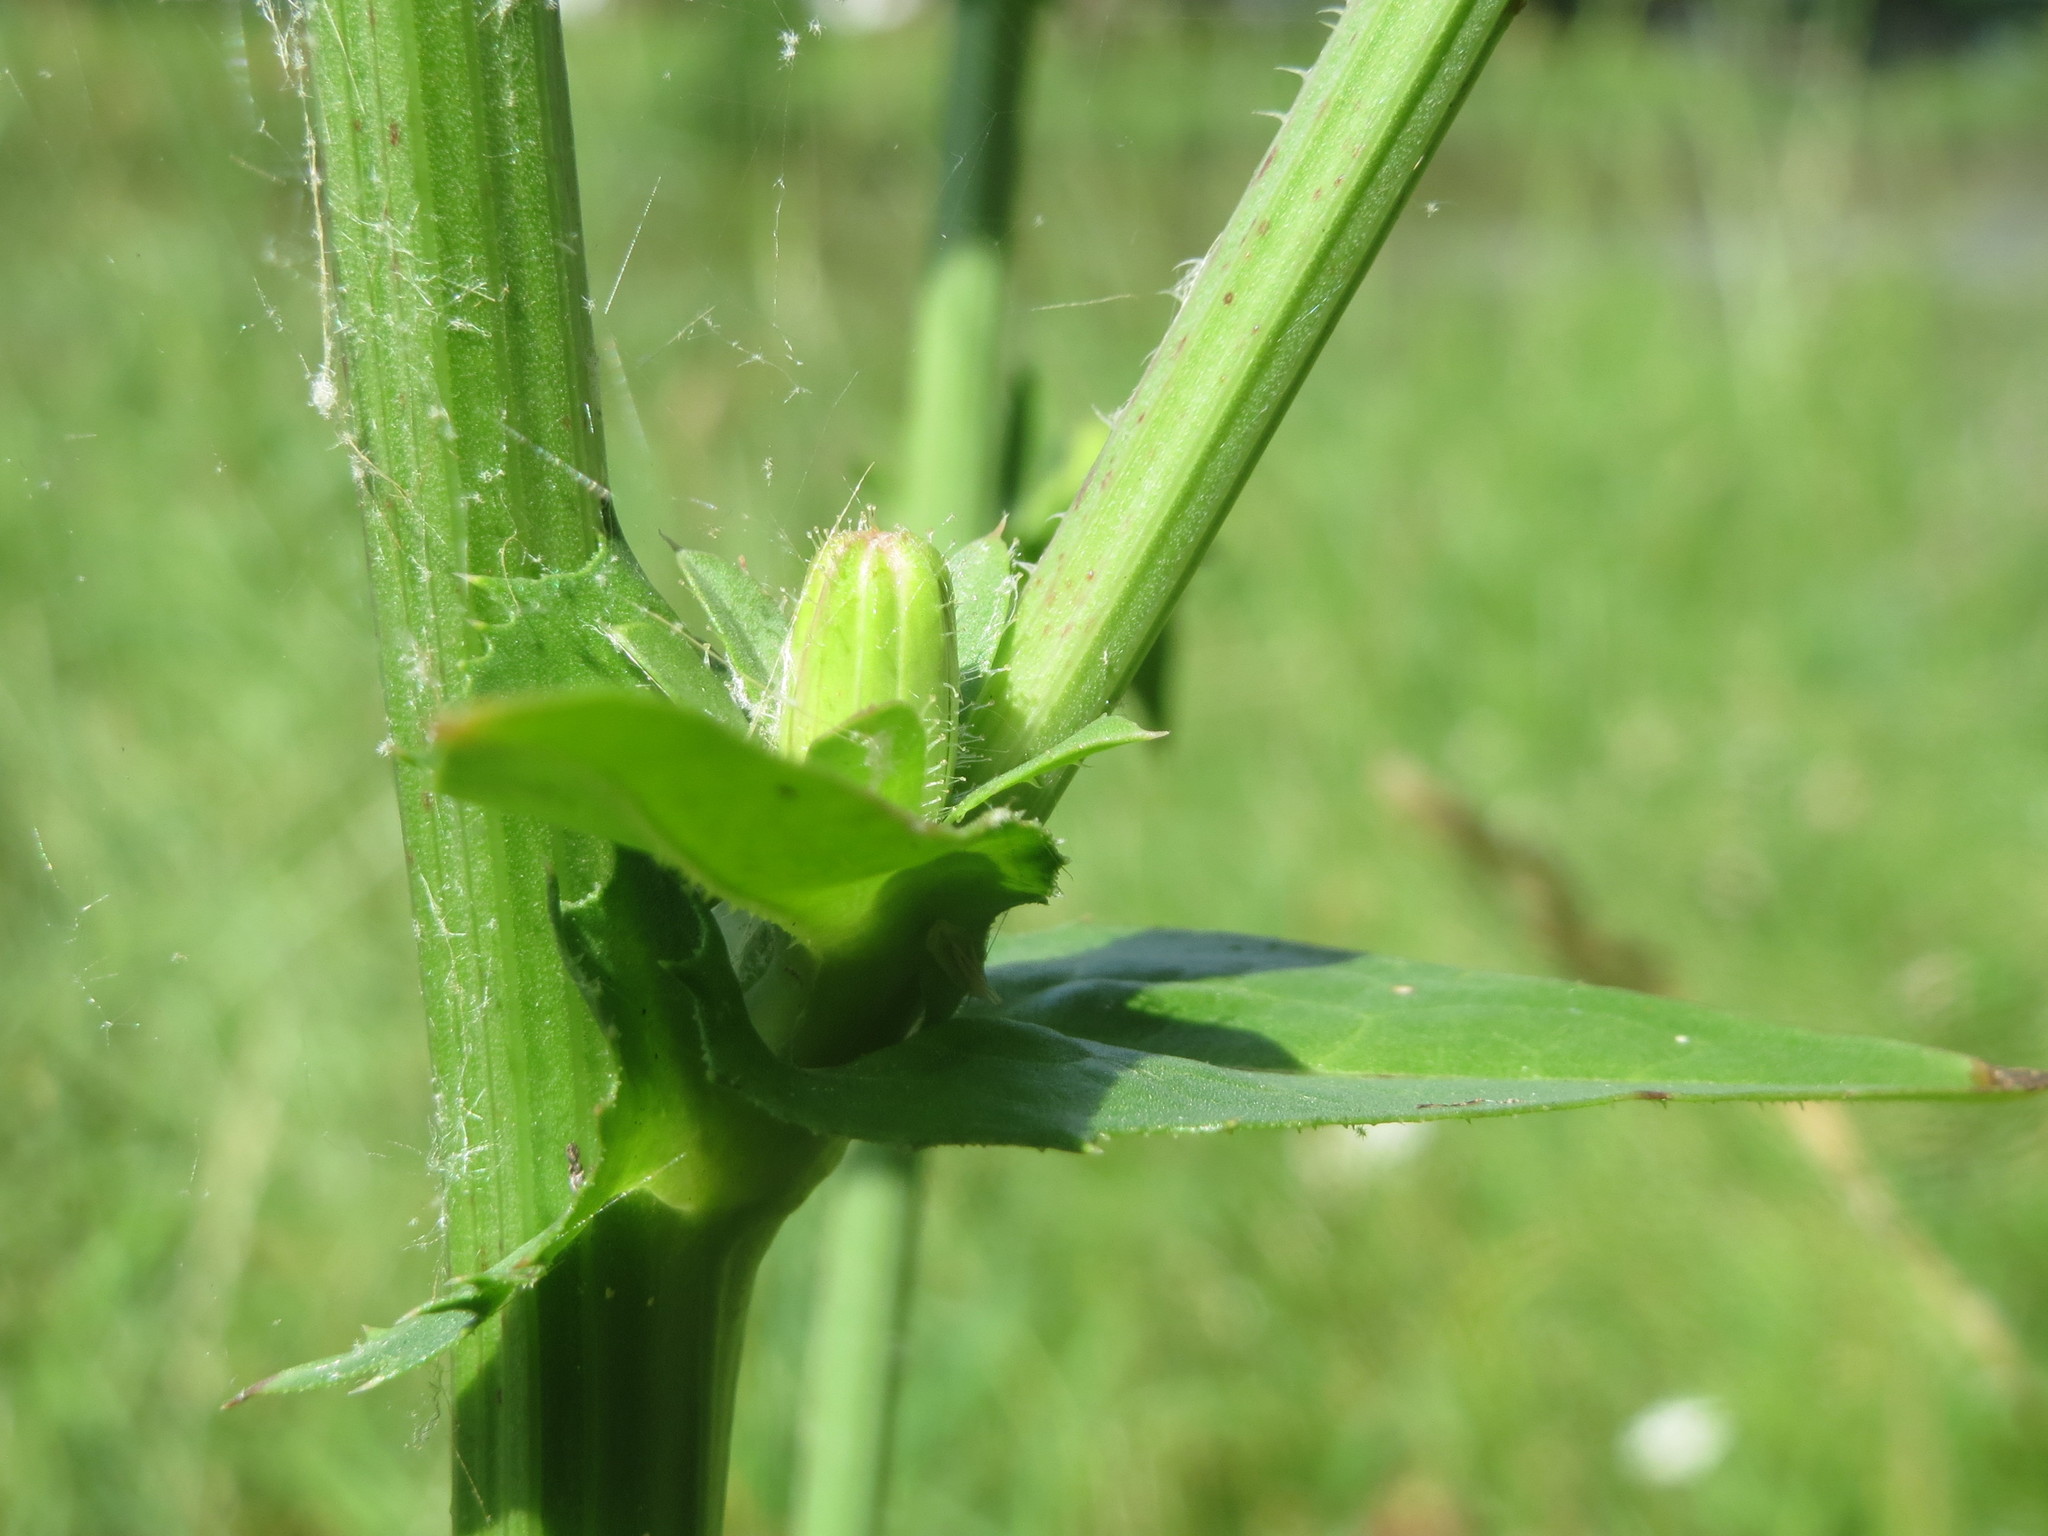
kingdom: Plantae
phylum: Tracheophyta
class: Magnoliopsida
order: Asterales
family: Asteraceae
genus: Cichorium
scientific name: Cichorium intybus
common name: Chicory
